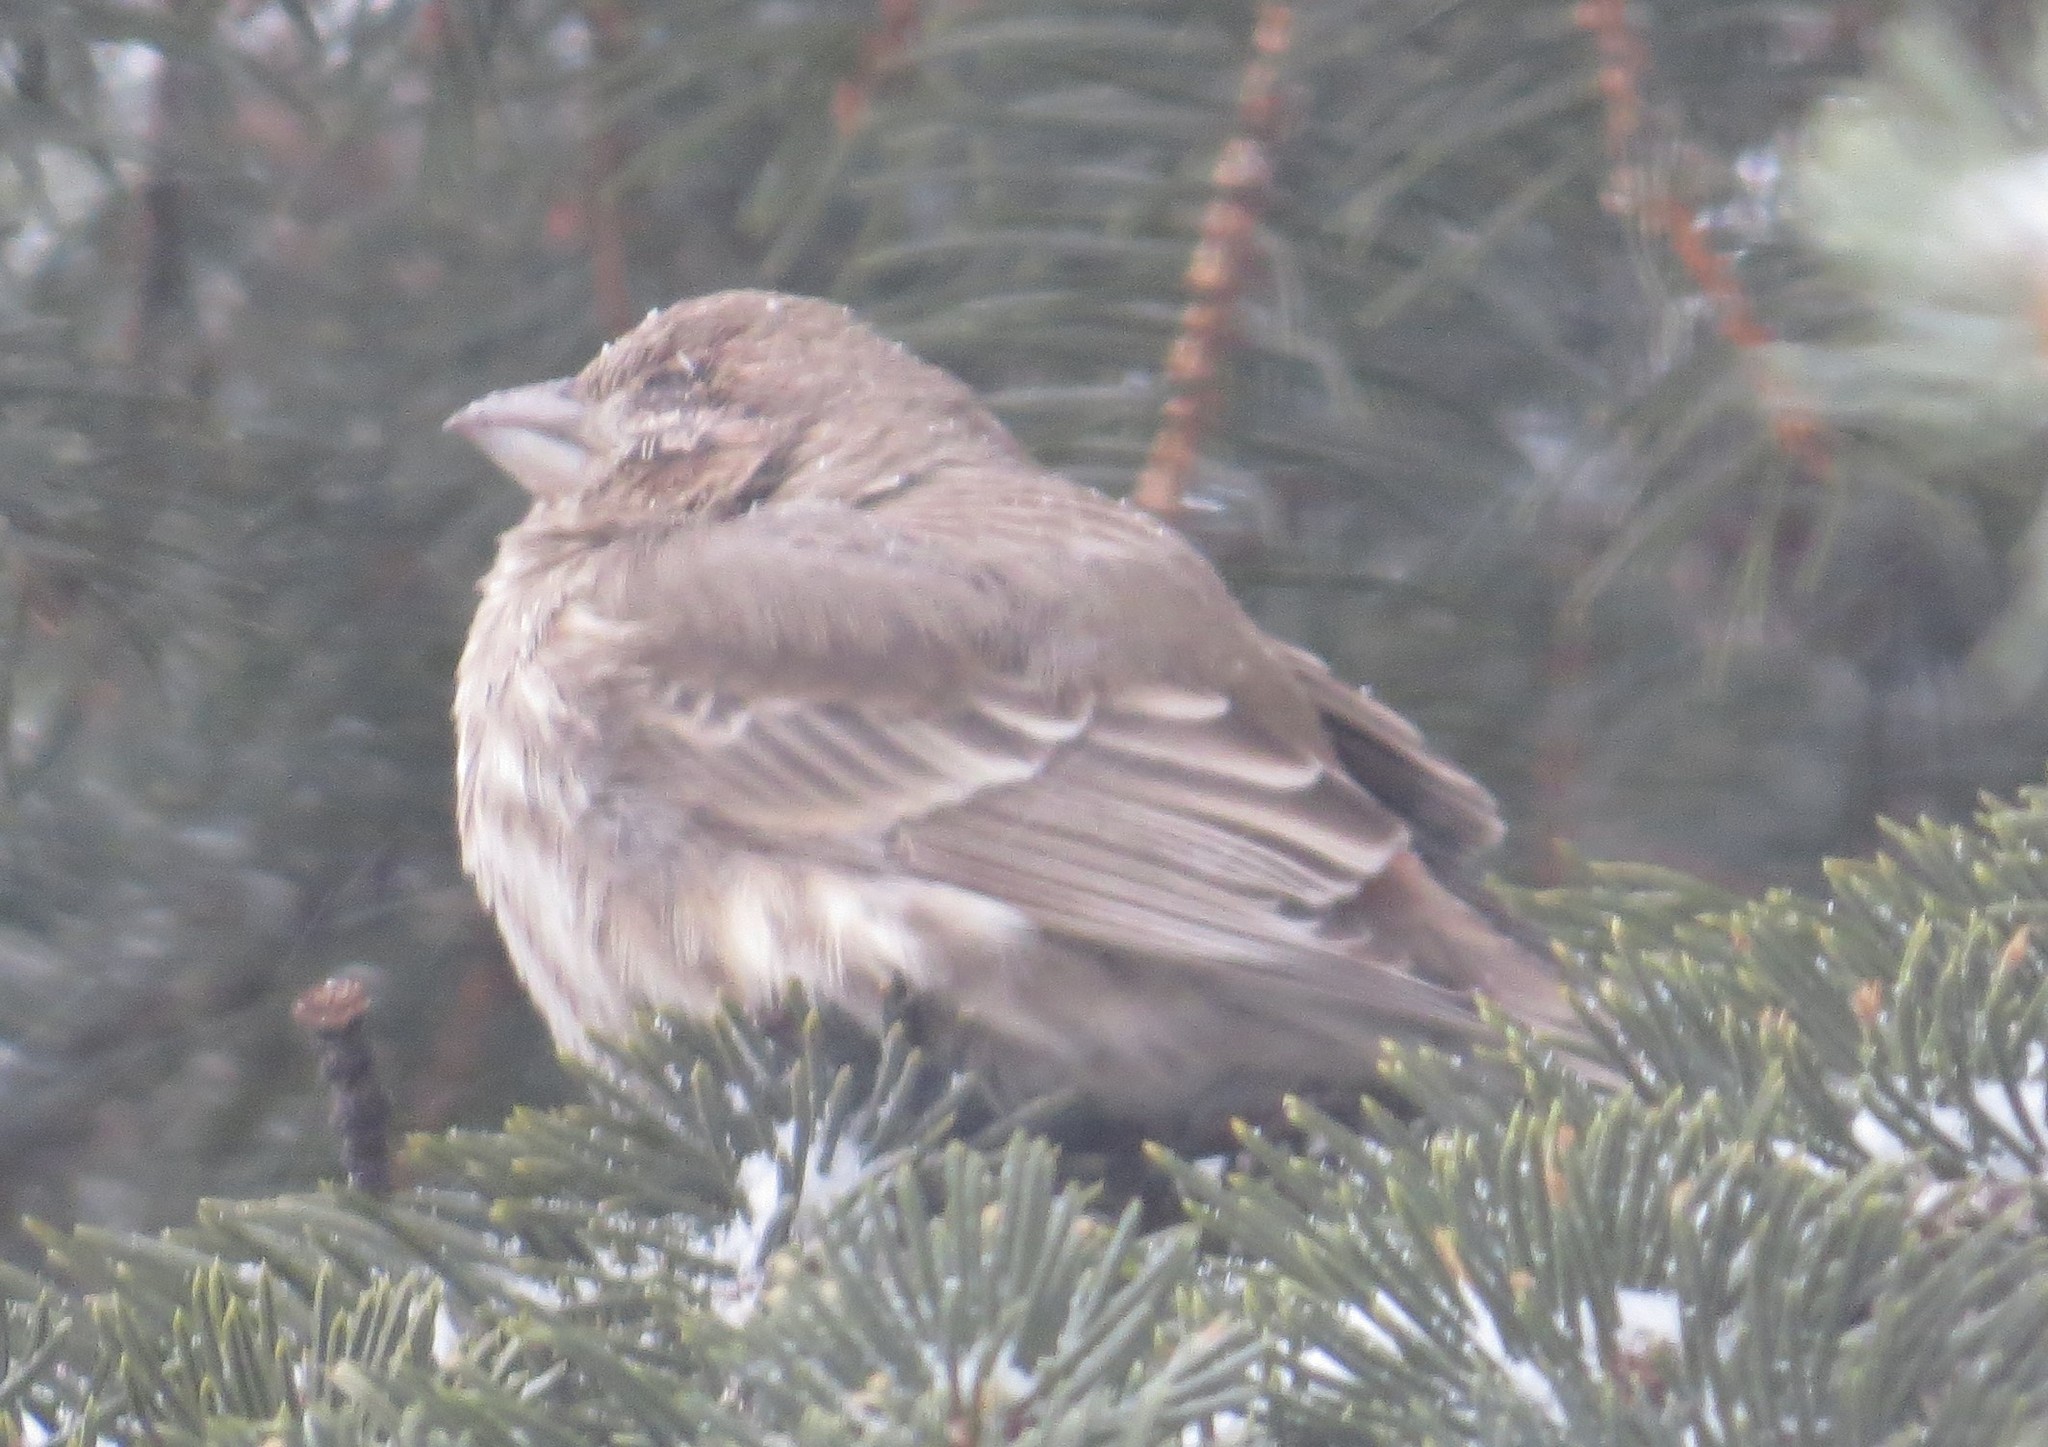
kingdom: Animalia
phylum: Chordata
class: Aves
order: Passeriformes
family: Fringillidae
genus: Haemorhous
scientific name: Haemorhous mexicanus
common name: House finch
